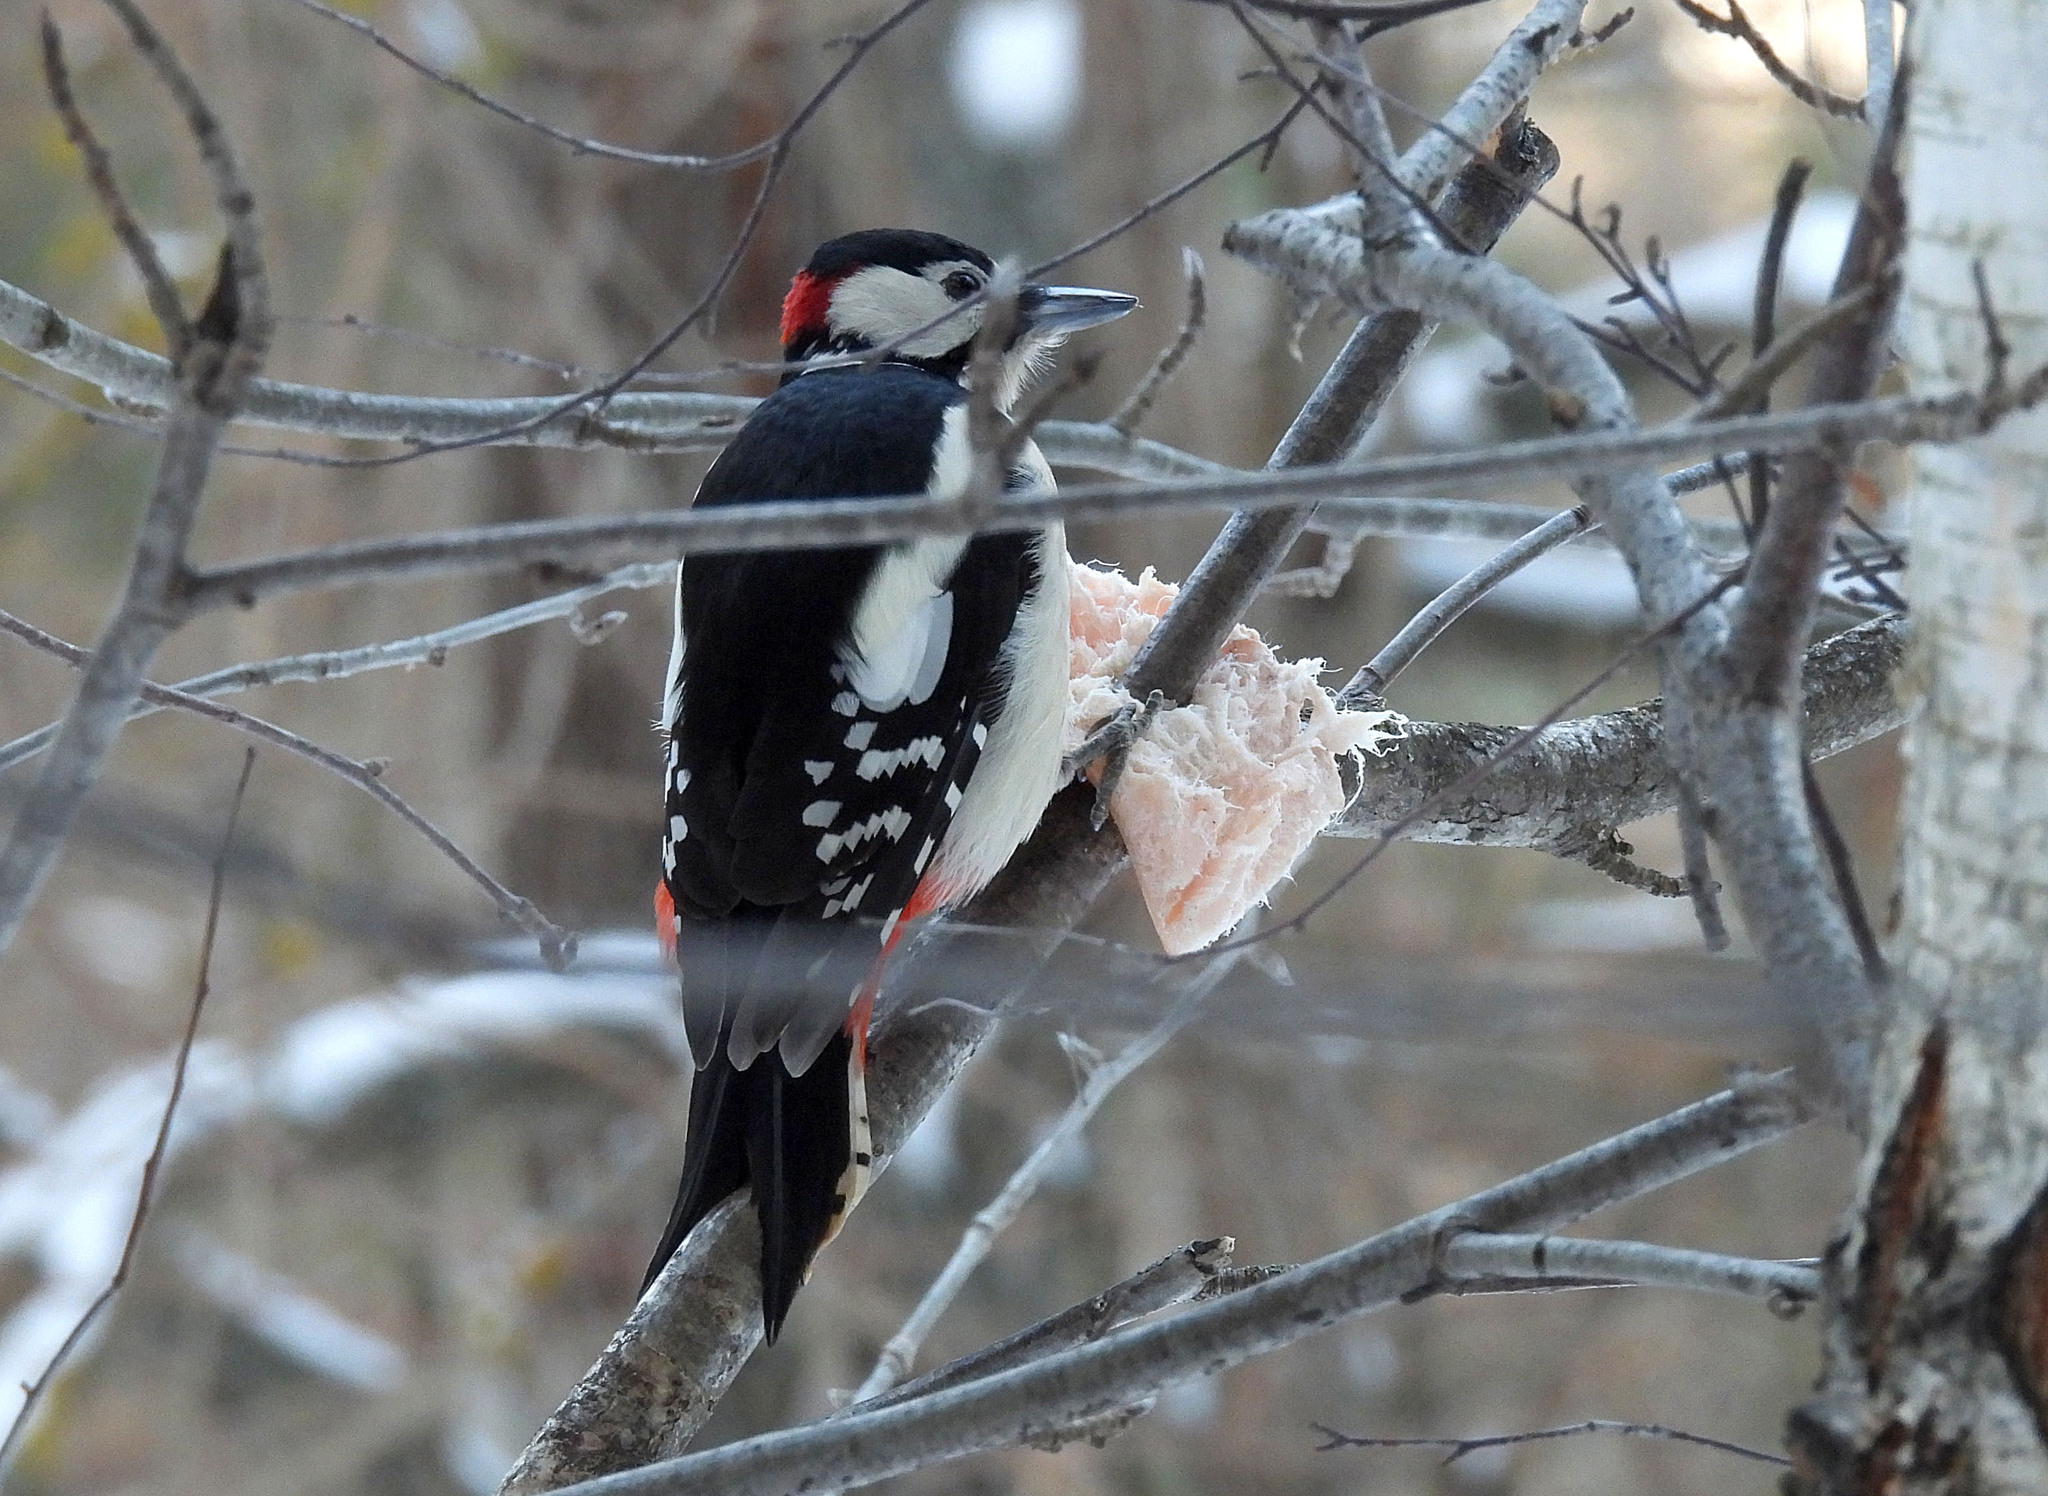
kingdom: Animalia
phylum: Chordata
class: Aves
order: Piciformes
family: Picidae
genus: Dendrocopos
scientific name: Dendrocopos major
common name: Great spotted woodpecker
